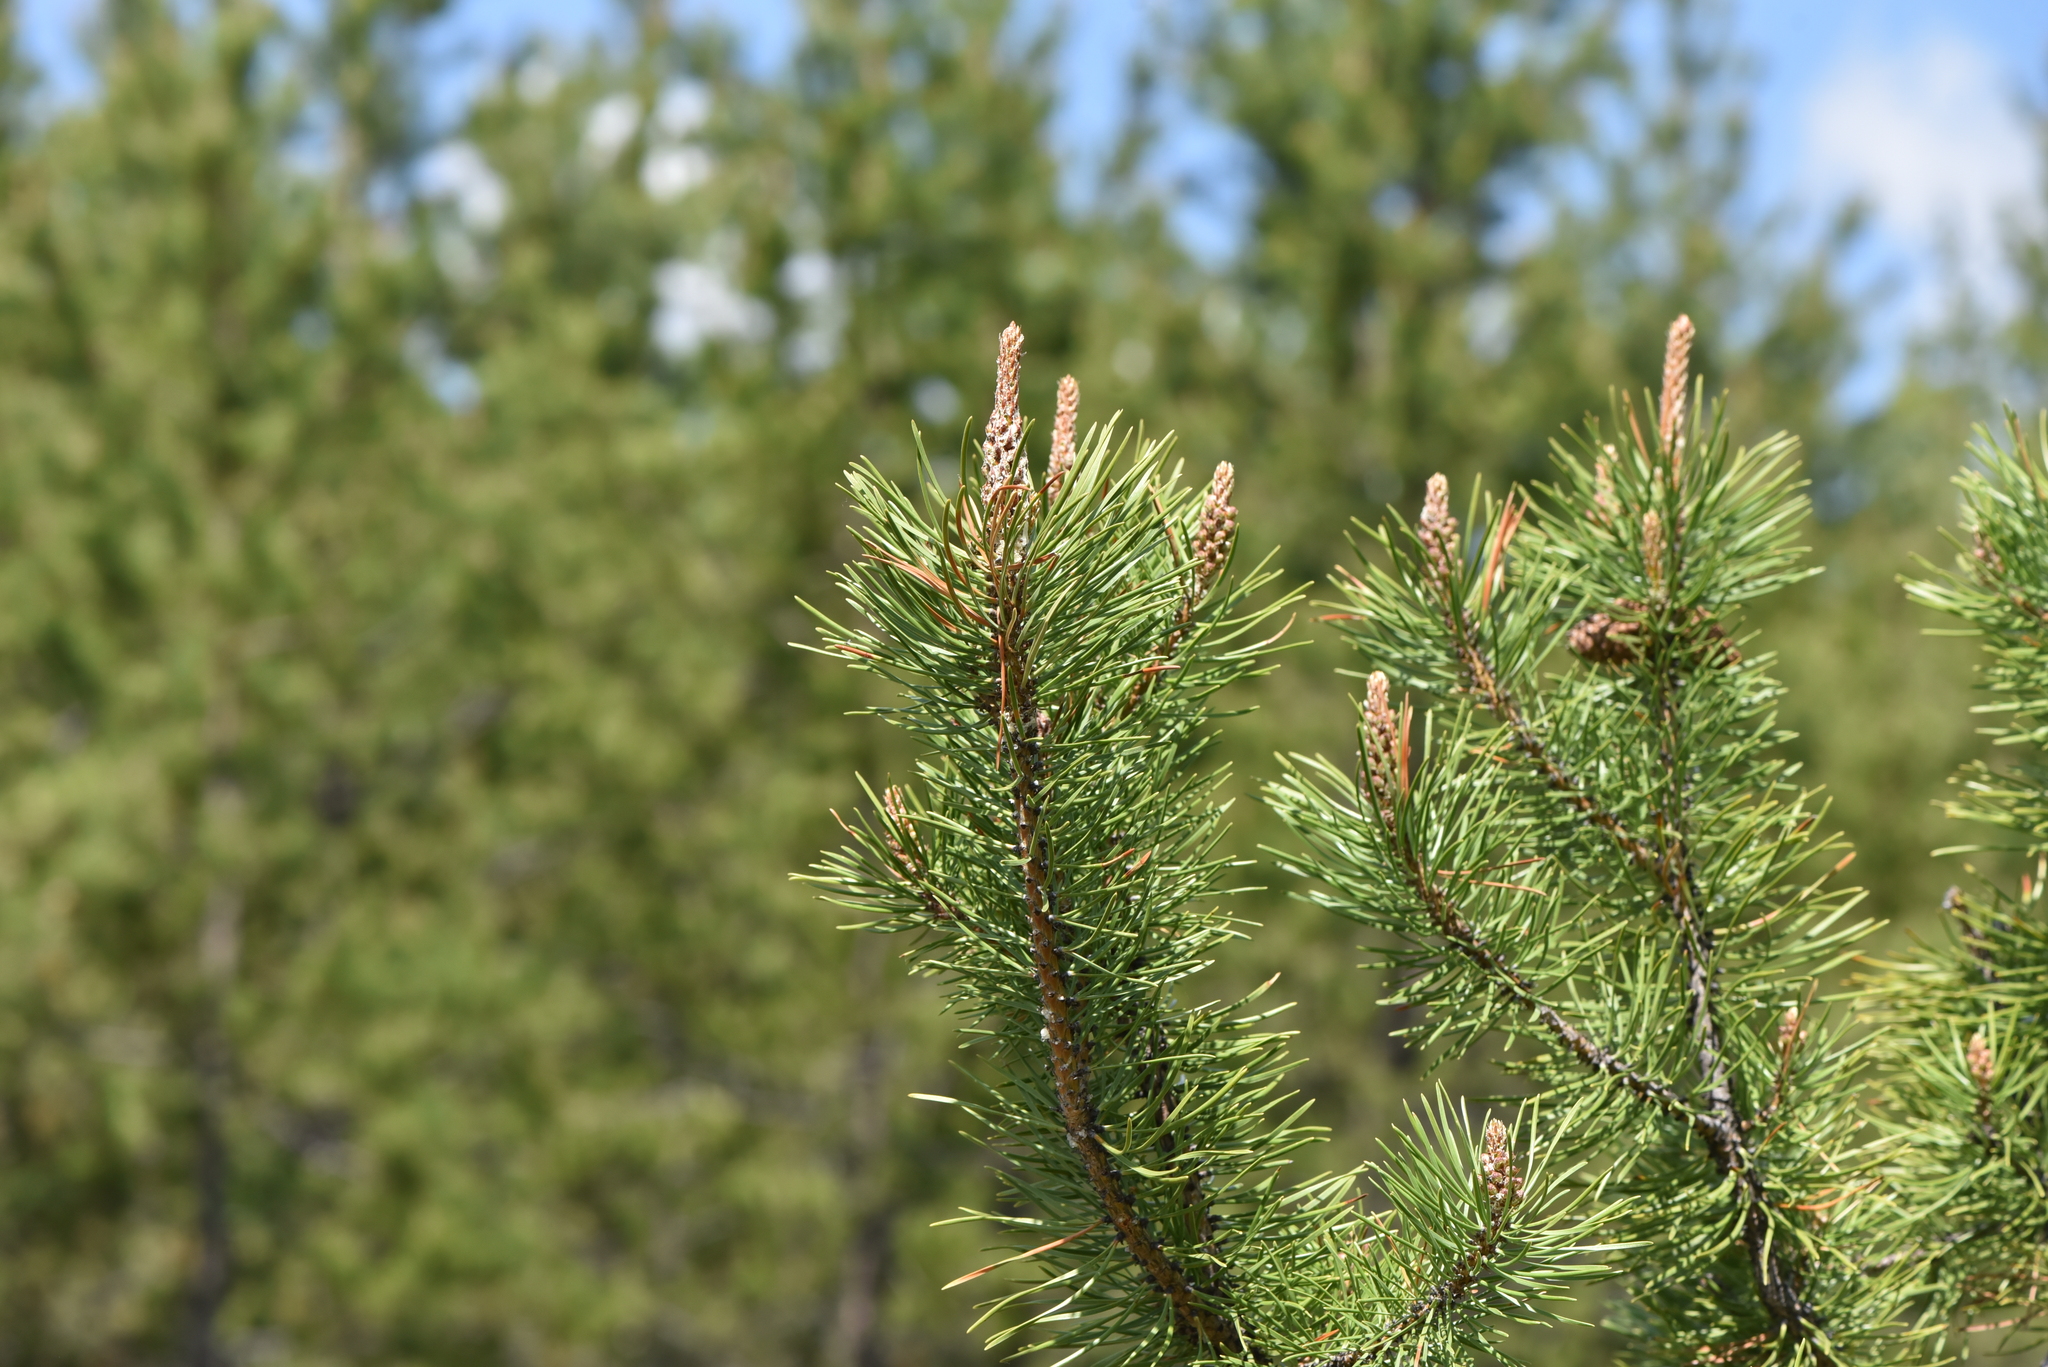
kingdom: Plantae
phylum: Tracheophyta
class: Pinopsida
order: Pinales
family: Pinaceae
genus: Pinus
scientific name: Pinus contorta
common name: Lodgepole pine
